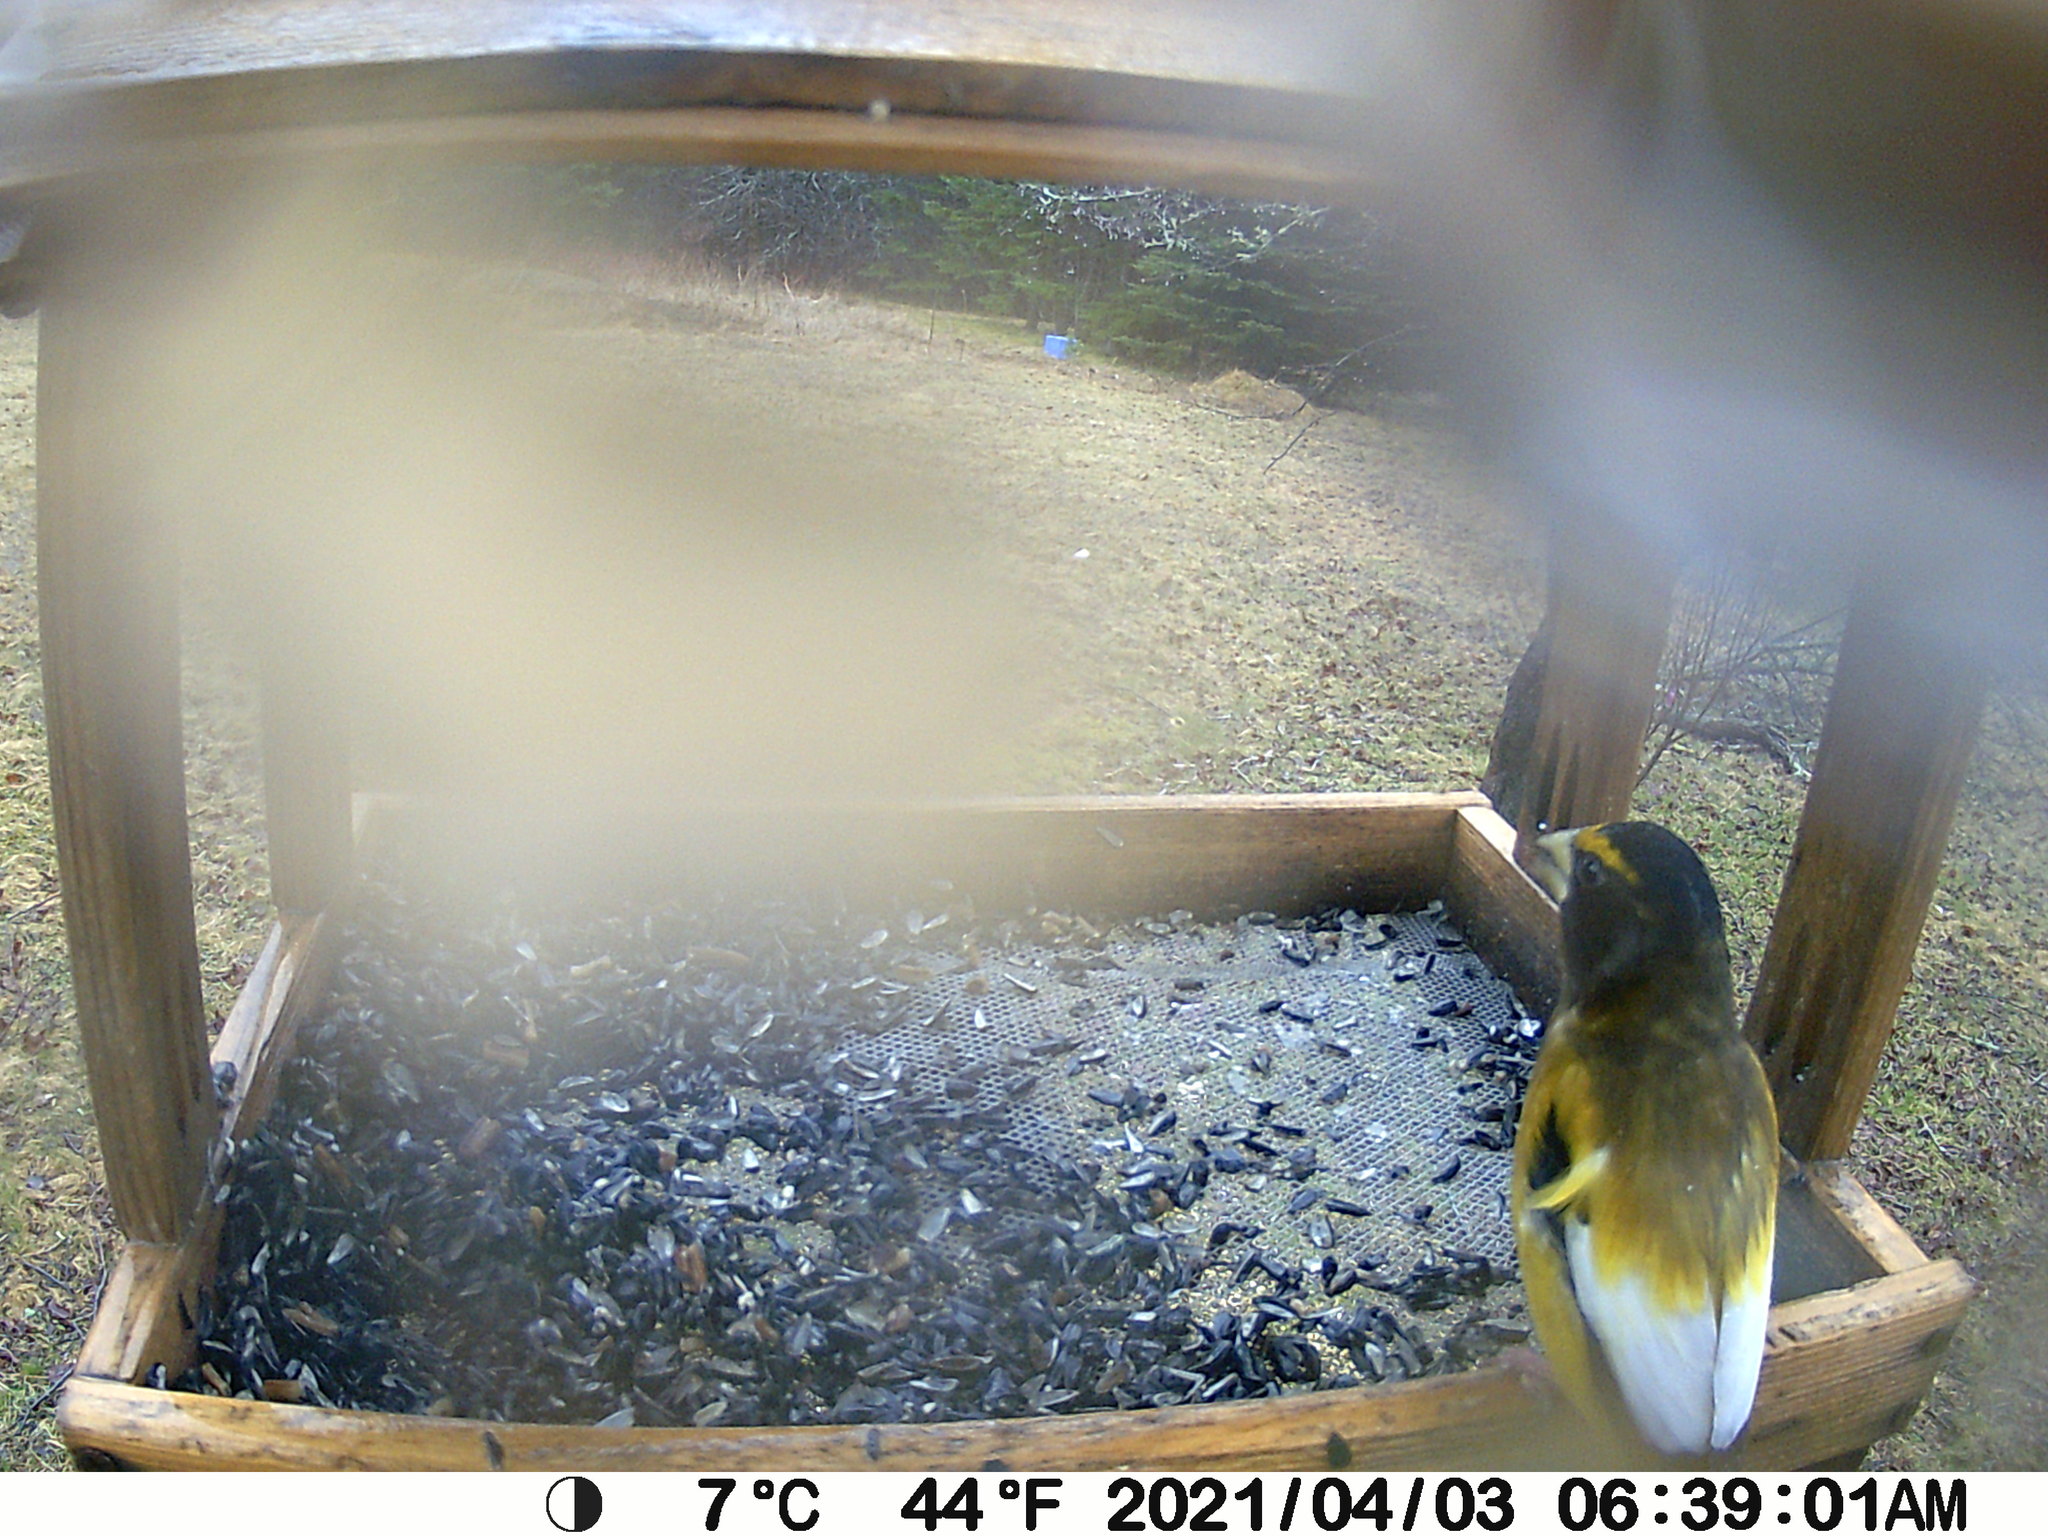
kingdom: Animalia
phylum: Chordata
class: Aves
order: Passeriformes
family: Fringillidae
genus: Hesperiphona
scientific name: Hesperiphona vespertina
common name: Evening grosbeak
